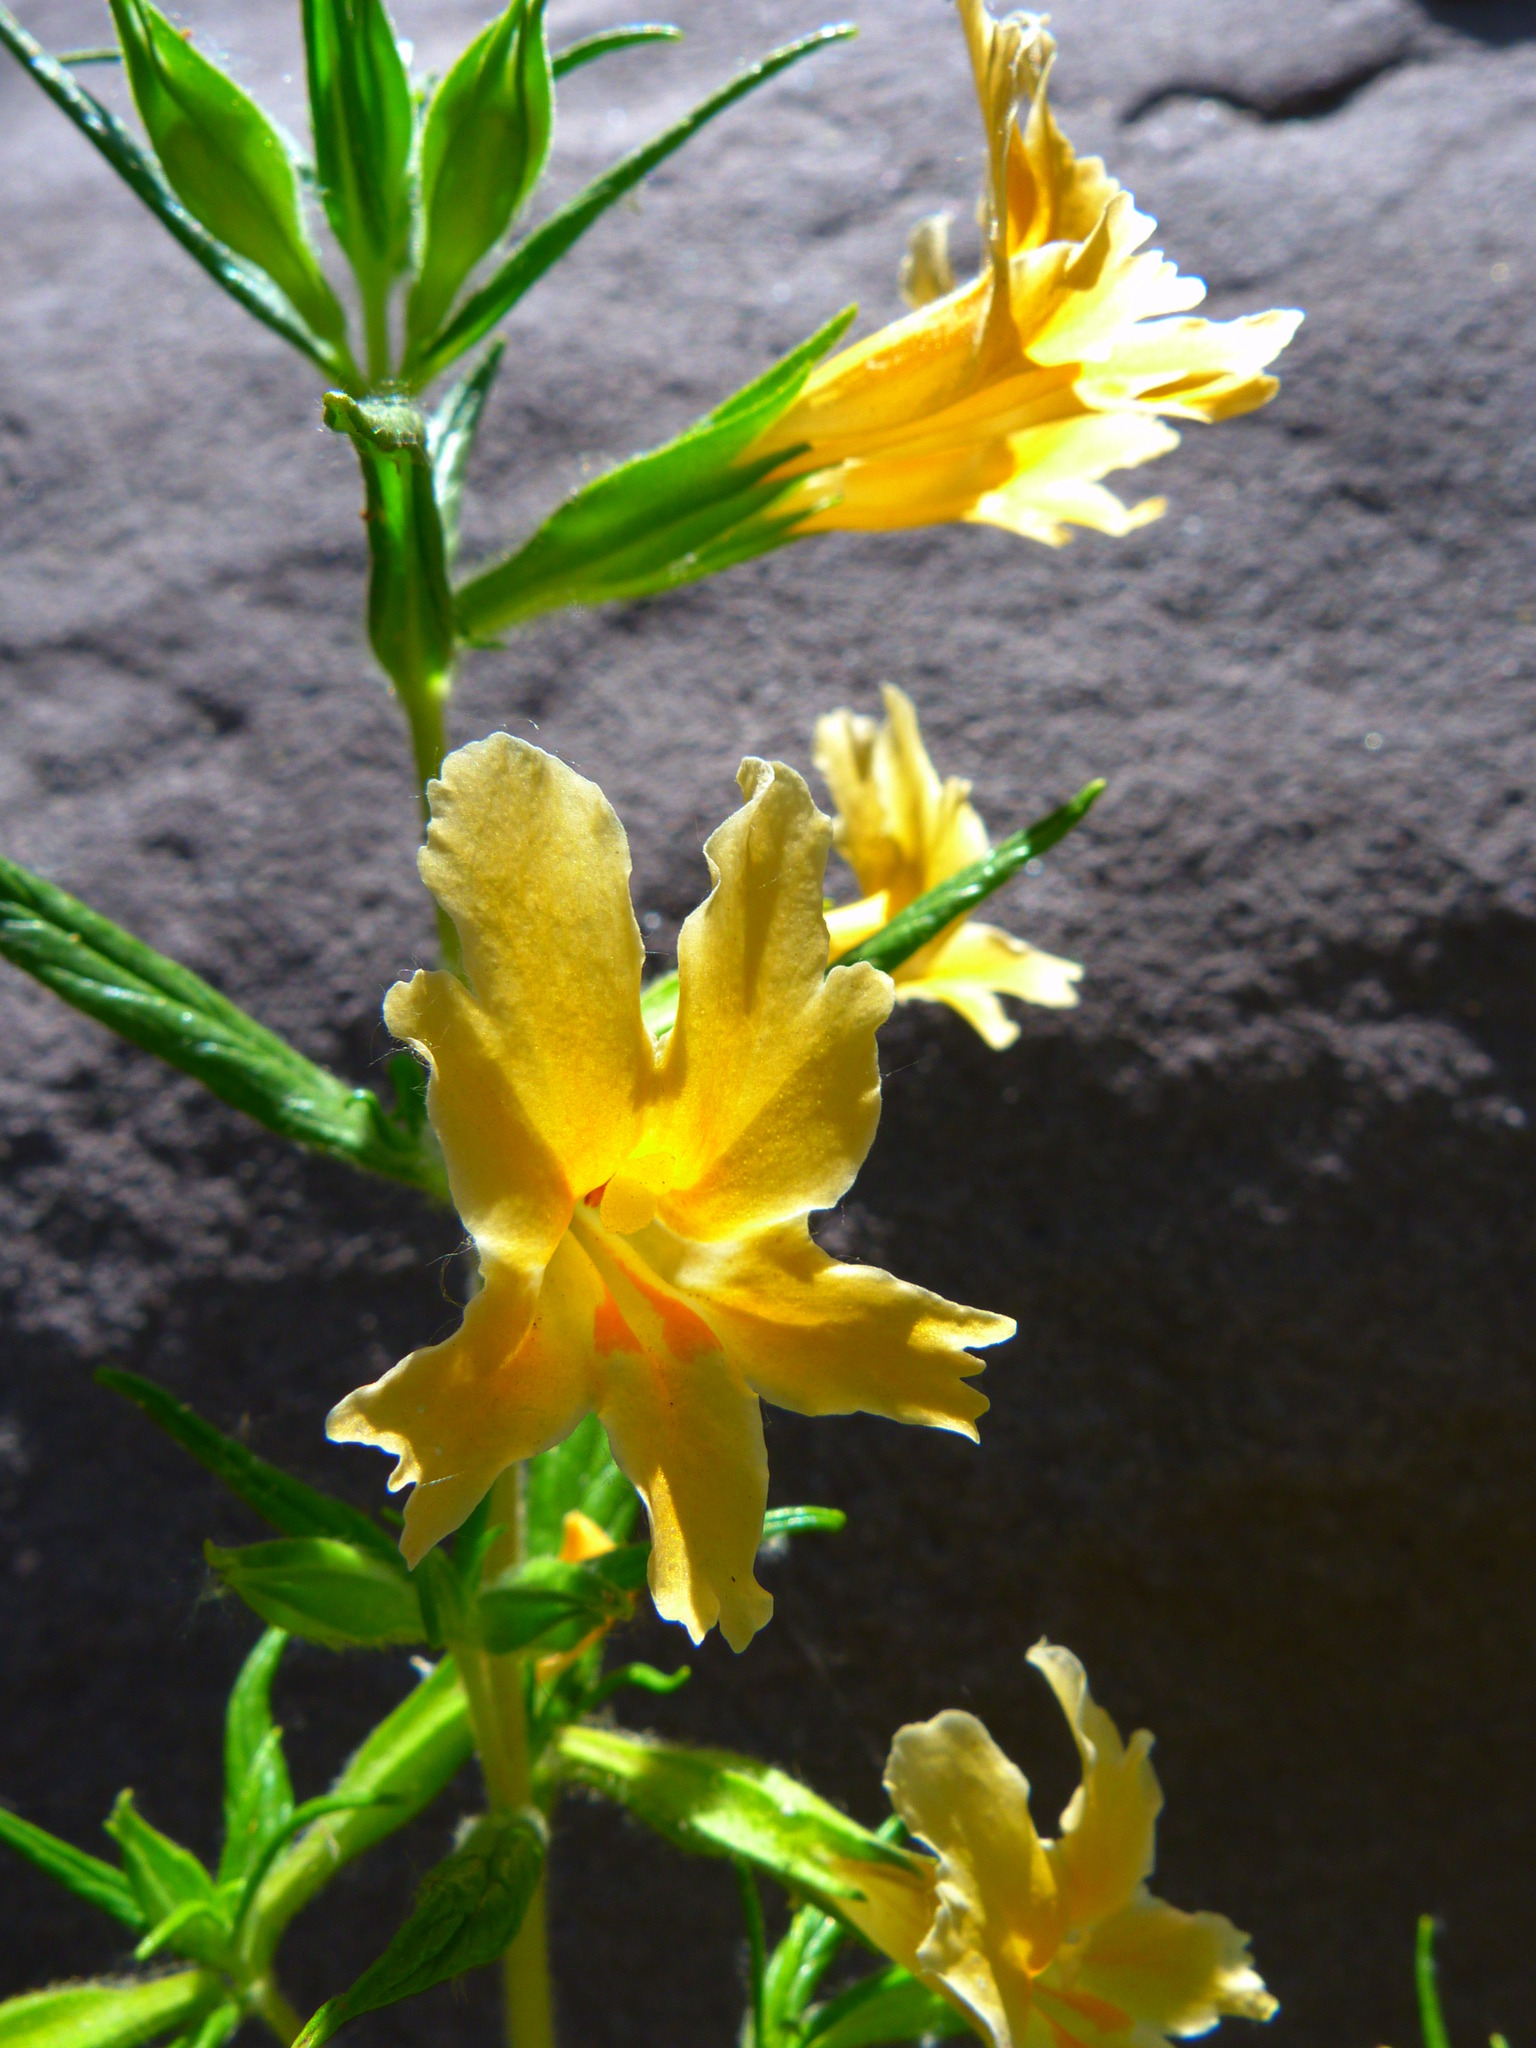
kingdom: Plantae
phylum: Tracheophyta
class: Magnoliopsida
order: Lamiales
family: Phrymaceae
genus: Diplacus
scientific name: Diplacus longiflorus
